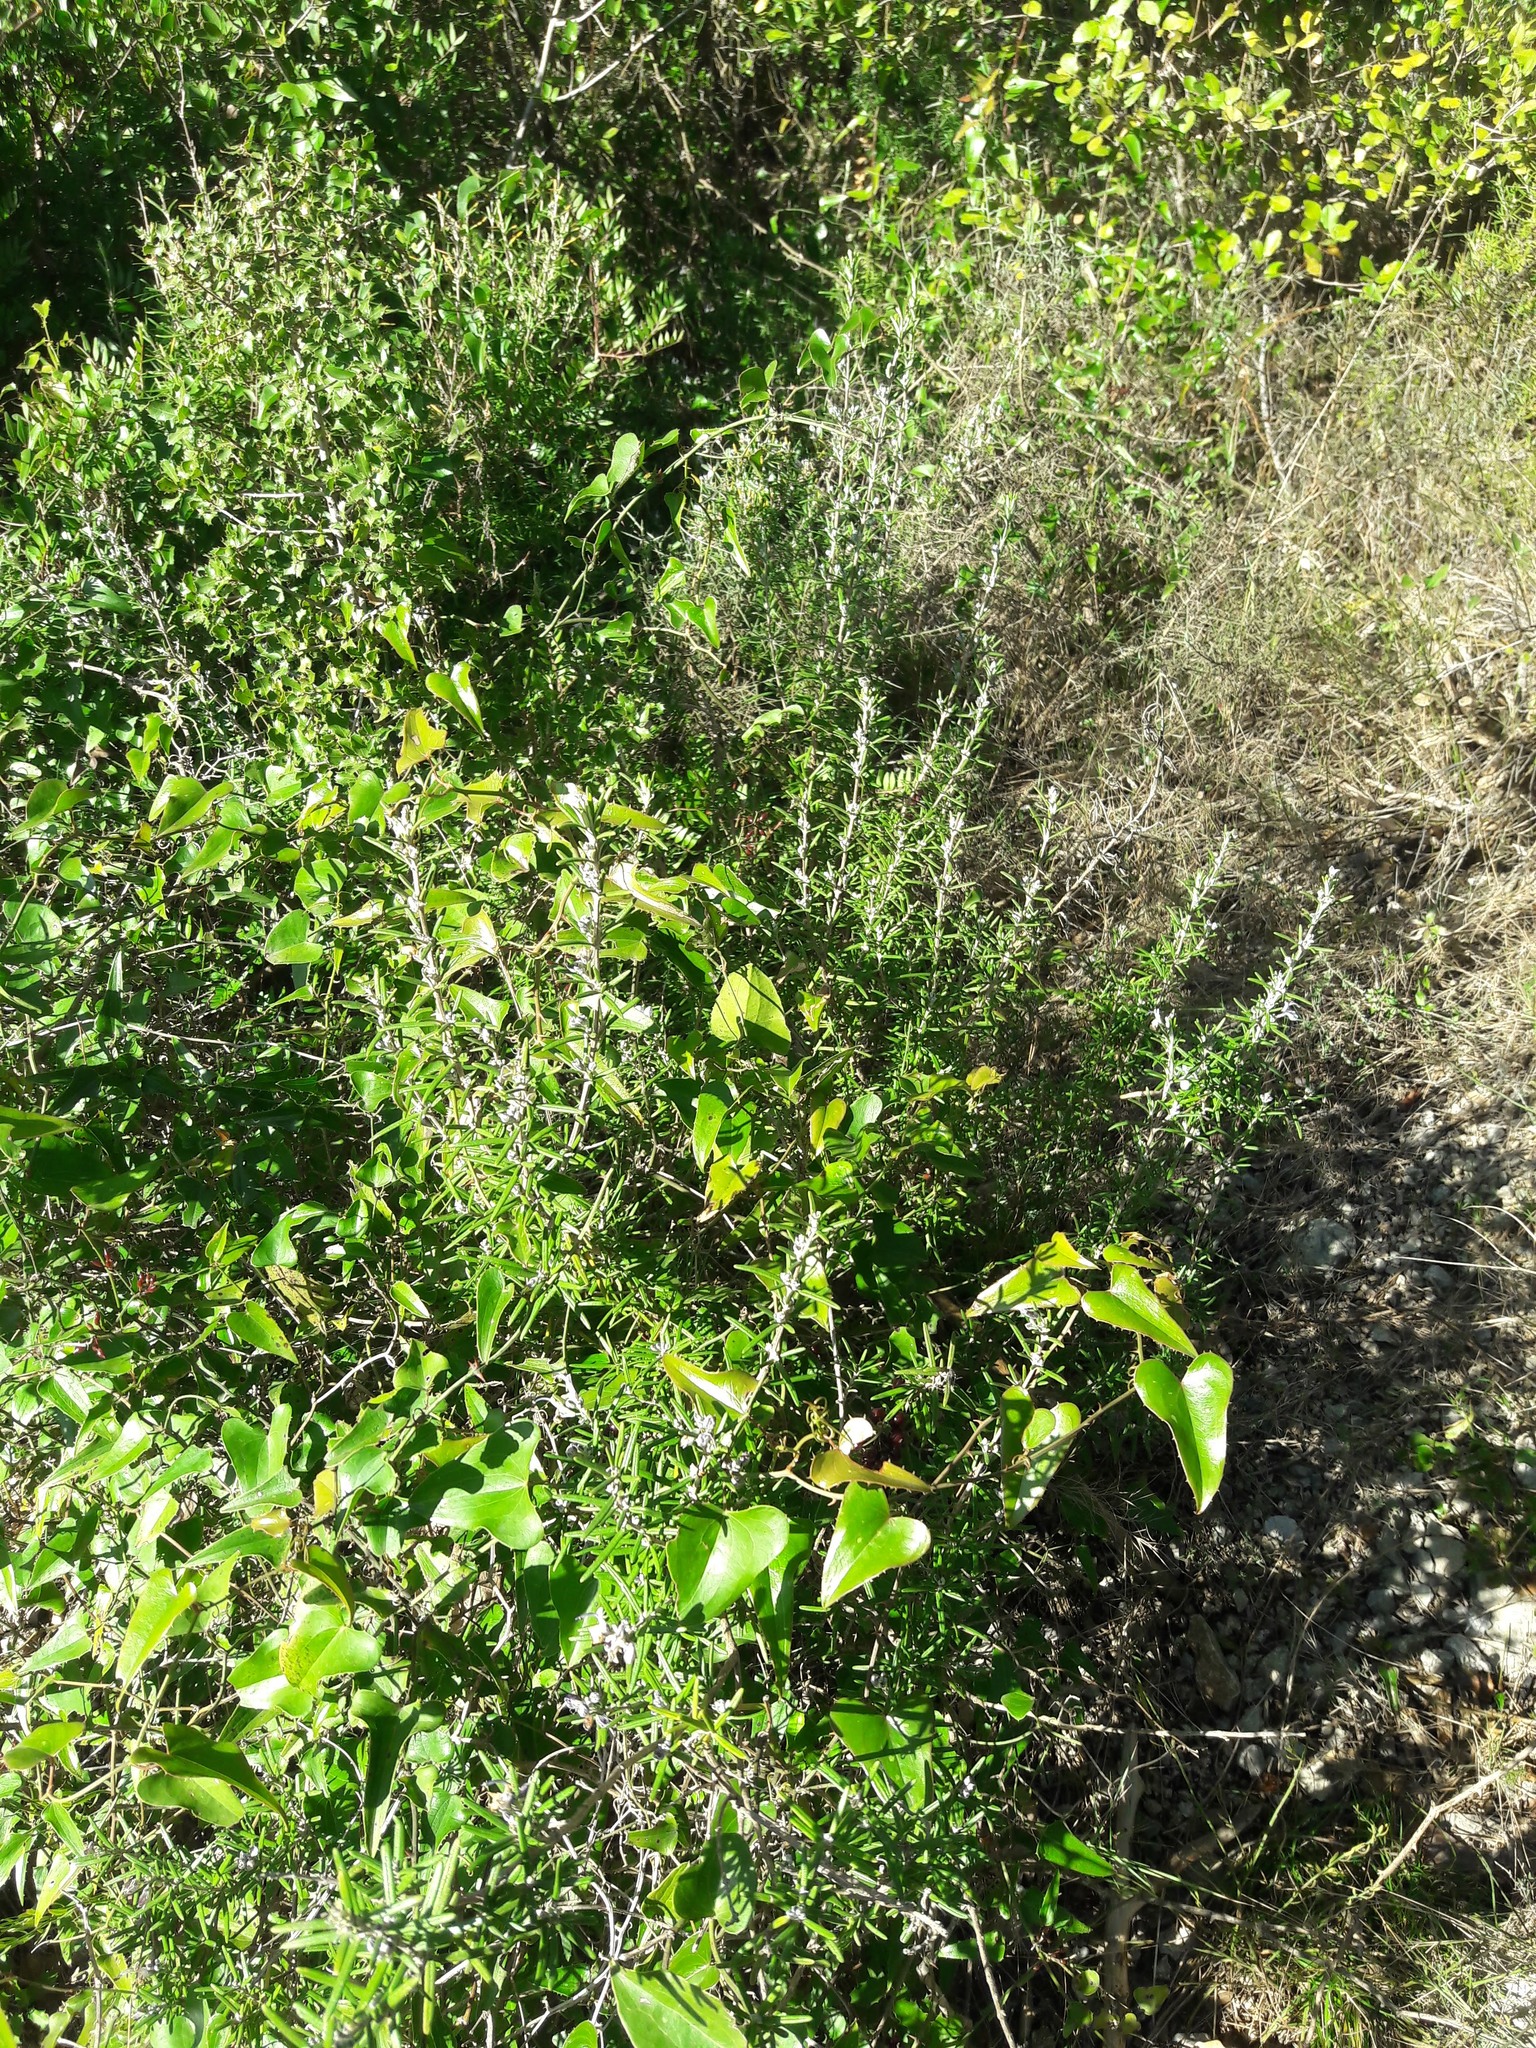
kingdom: Plantae
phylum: Tracheophyta
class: Liliopsida
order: Liliales
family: Smilacaceae
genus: Smilax
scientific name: Smilax aspera
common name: Common smilax
